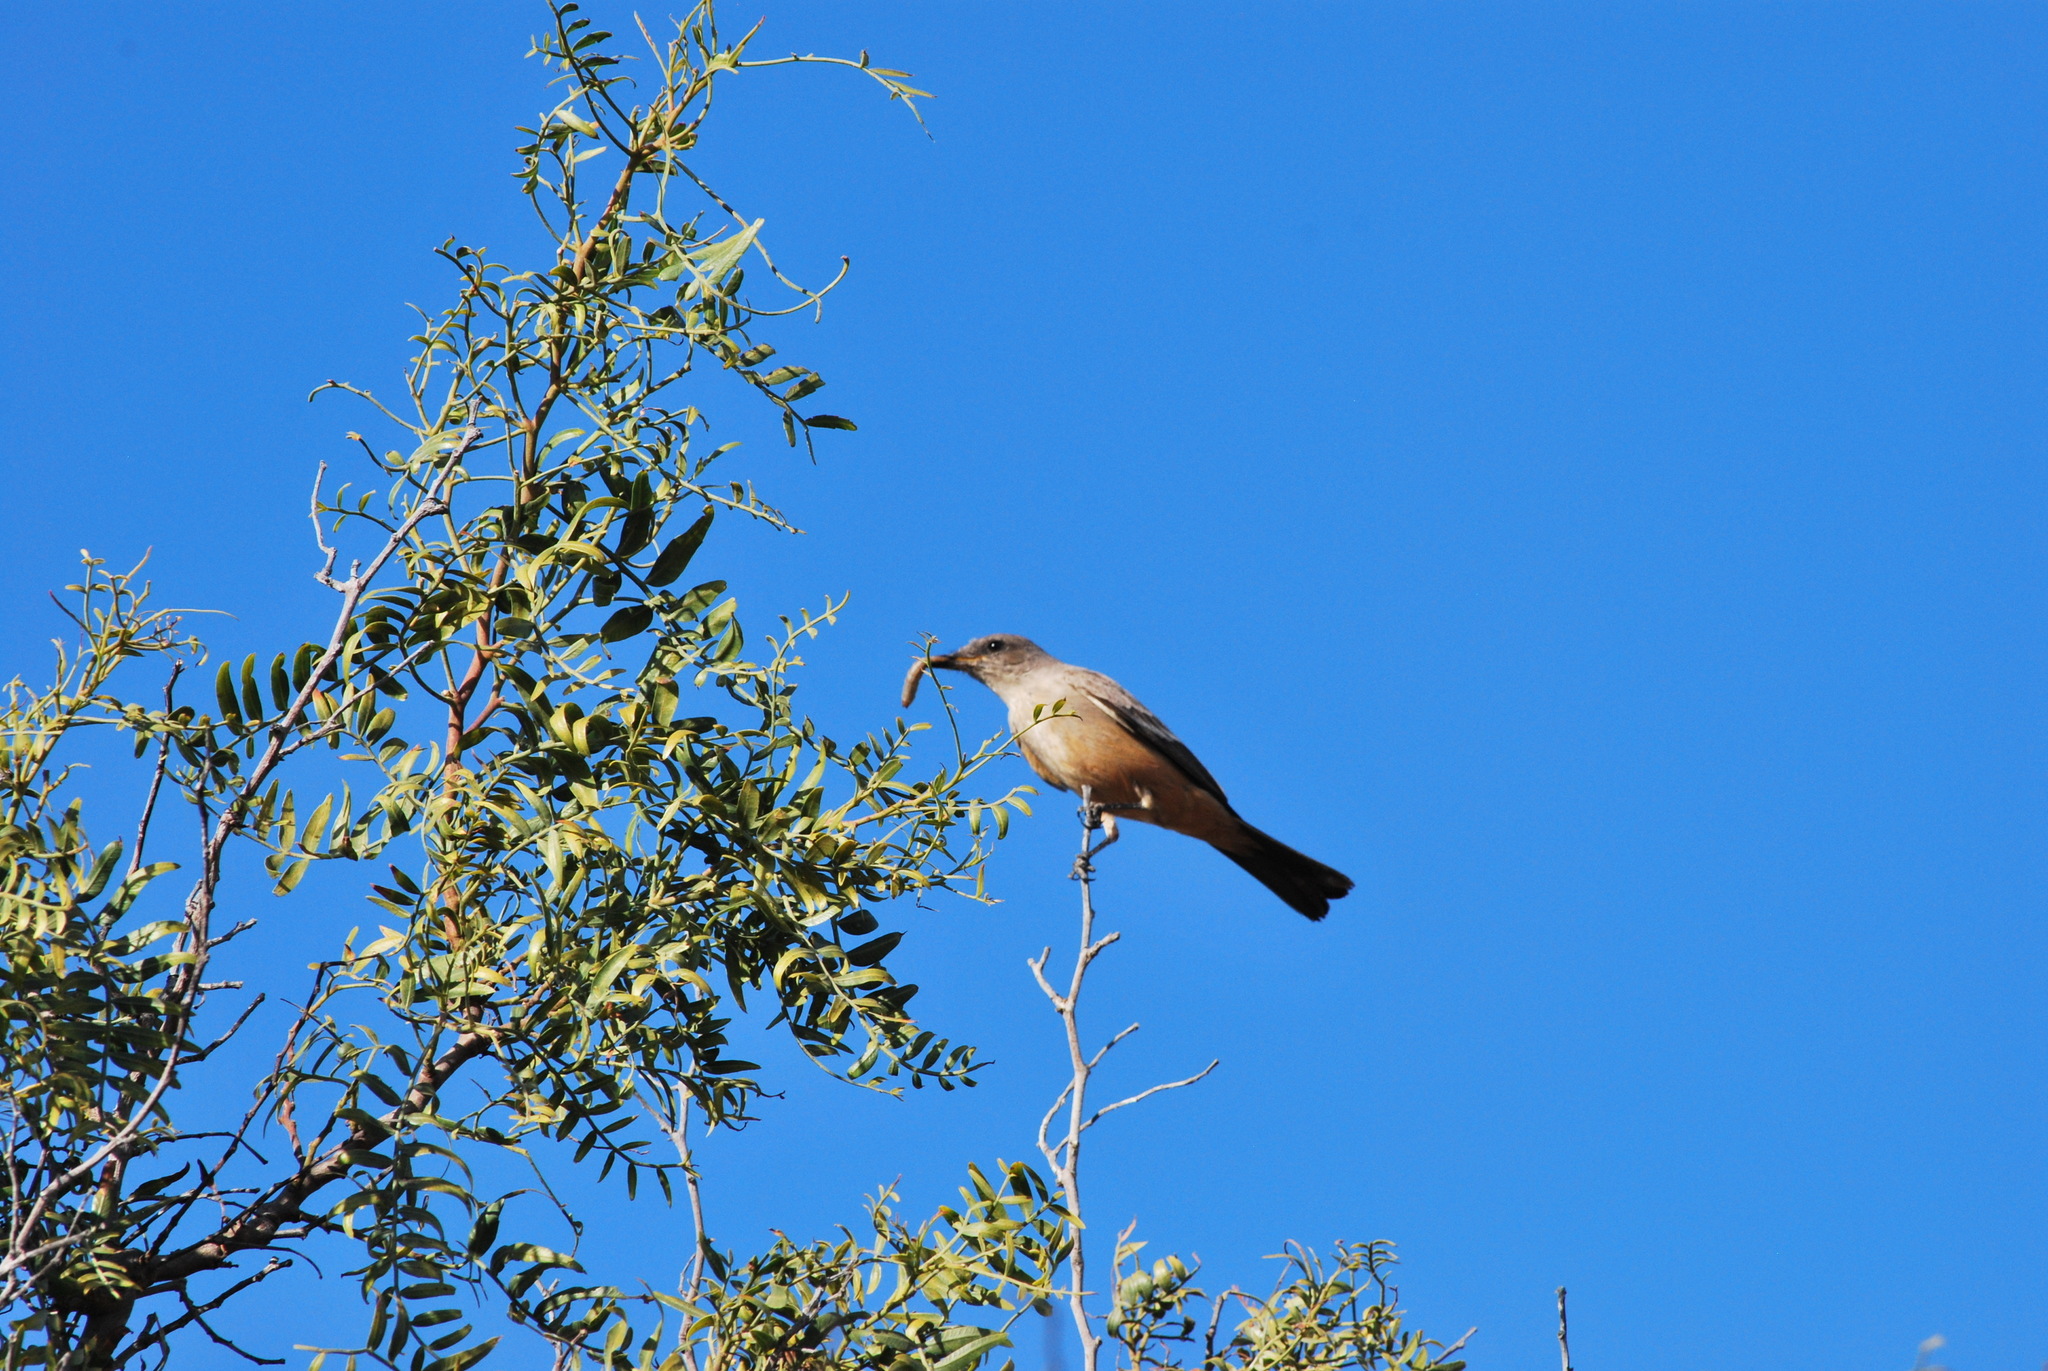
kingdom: Animalia
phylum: Chordata
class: Aves
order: Passeriformes
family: Tyrannidae
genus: Sayornis
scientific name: Sayornis saya
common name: Say's phoebe
